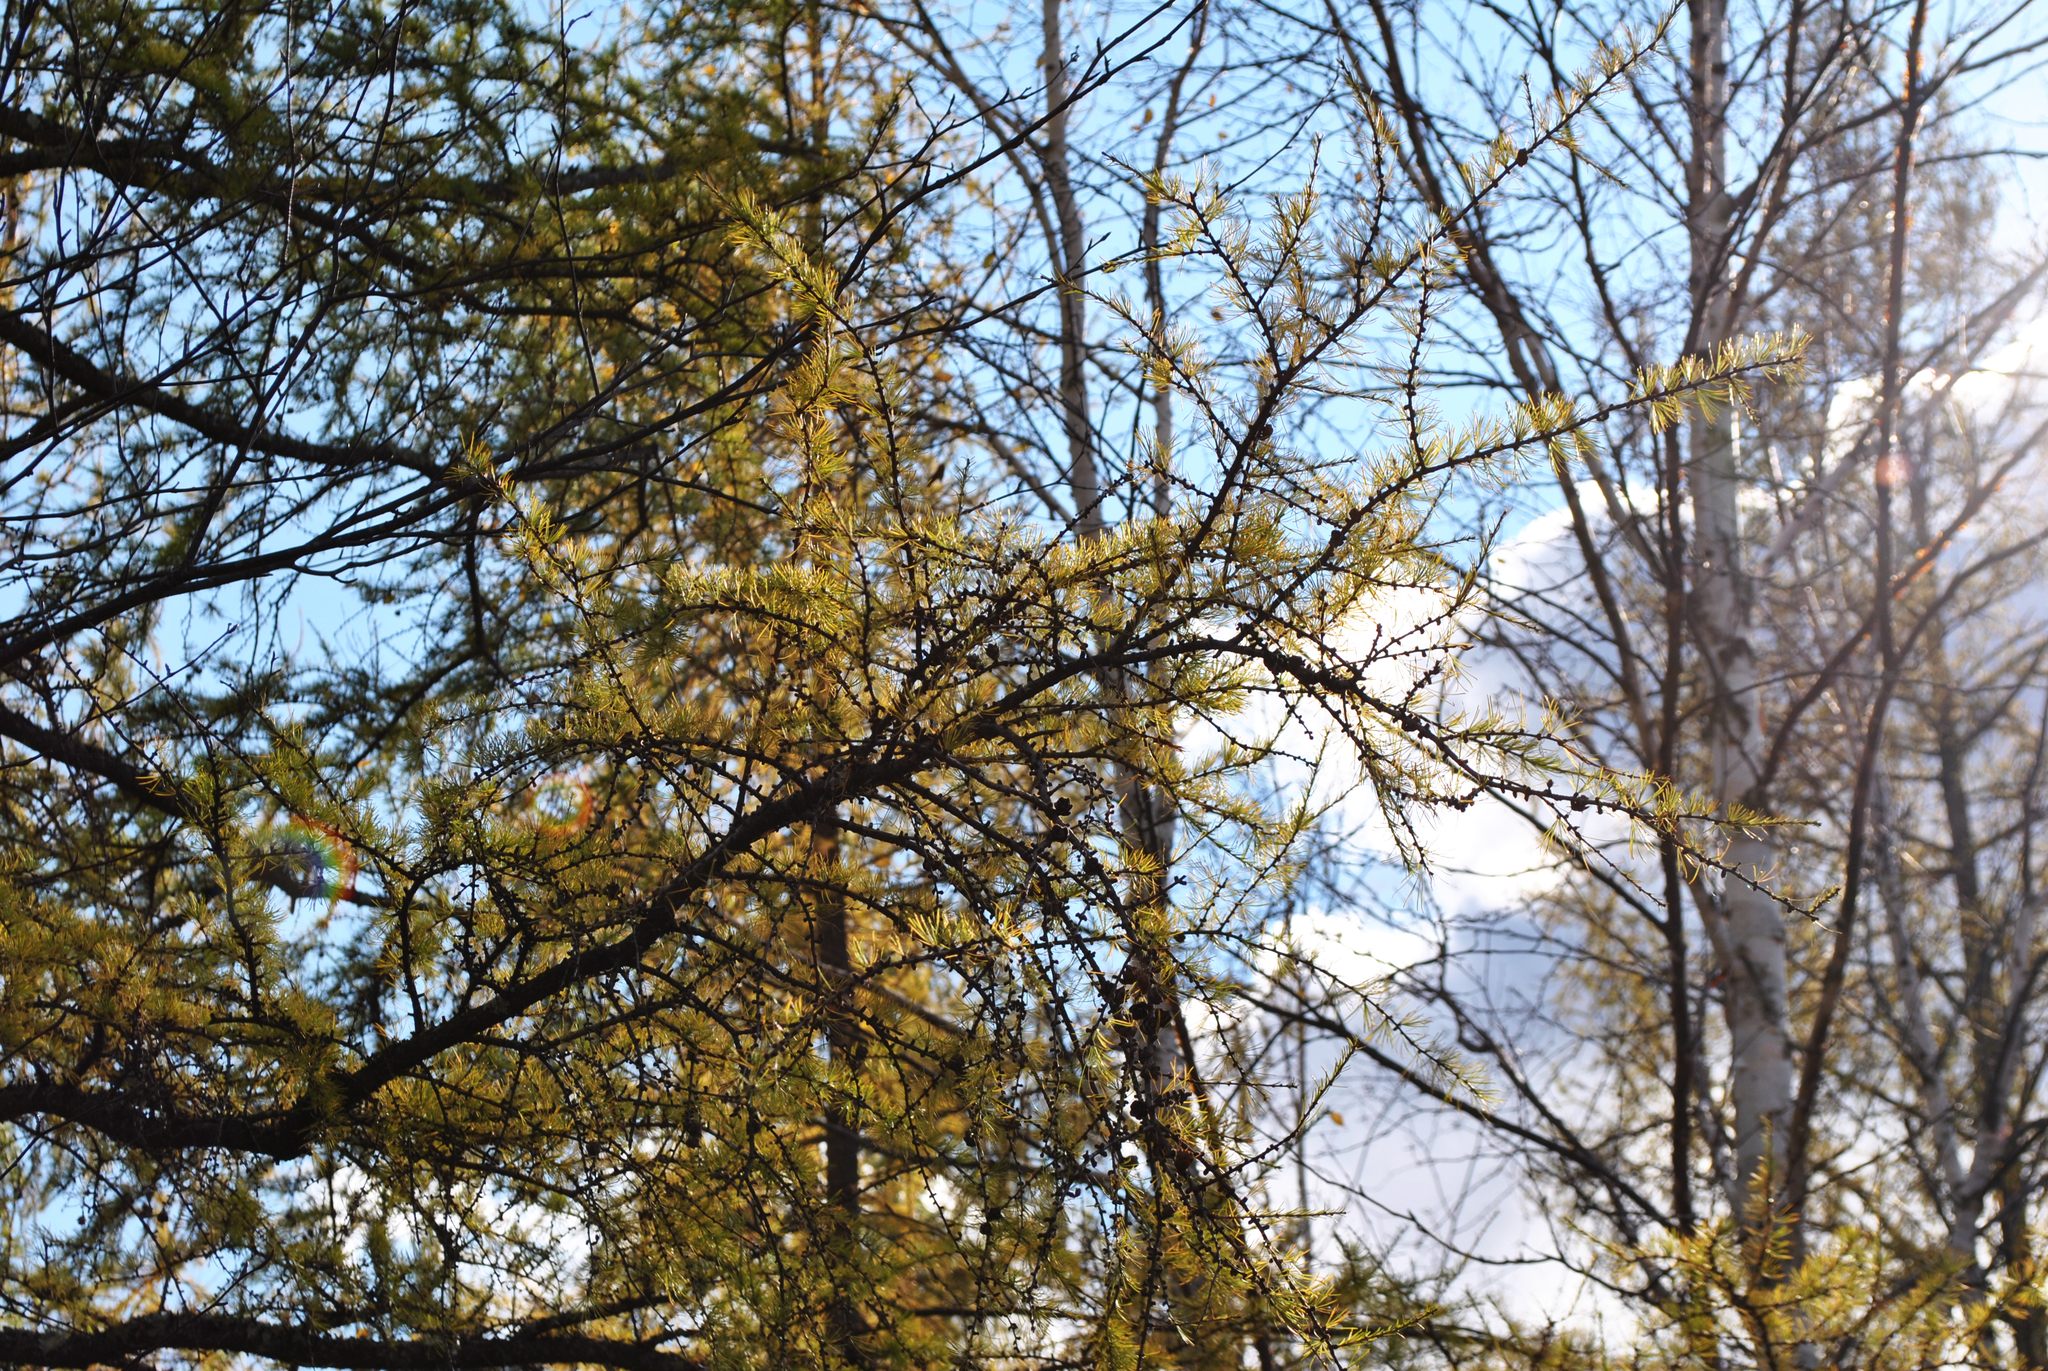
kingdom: Plantae
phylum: Tracheophyta
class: Pinopsida
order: Pinales
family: Pinaceae
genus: Larix
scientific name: Larix laricina
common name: American larch
